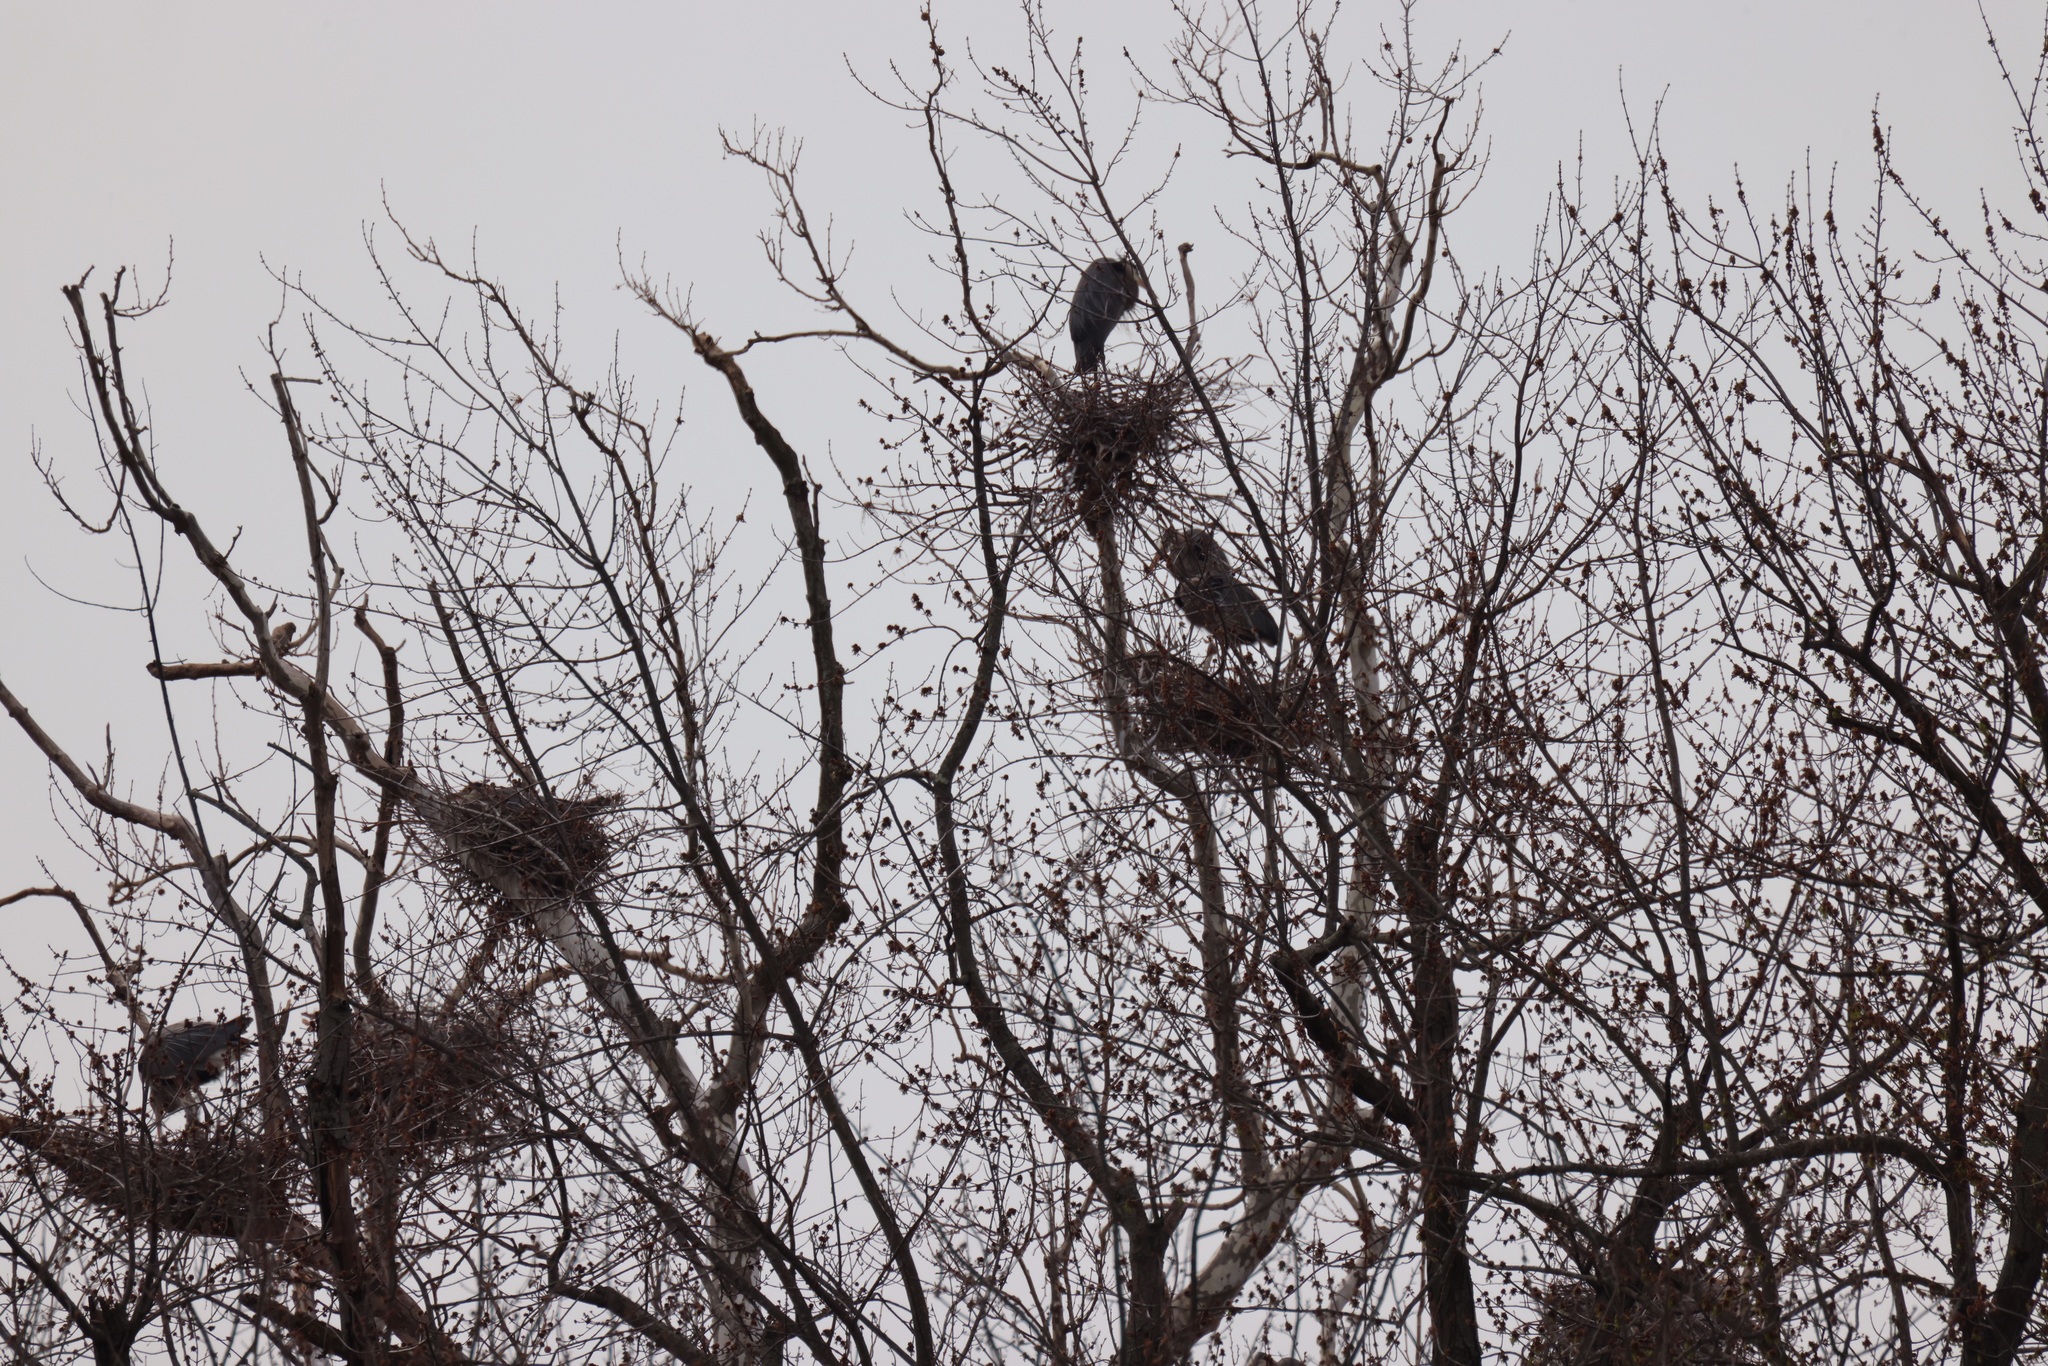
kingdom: Animalia
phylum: Chordata
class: Aves
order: Pelecaniformes
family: Ardeidae
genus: Ardea
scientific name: Ardea herodias
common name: Great blue heron
